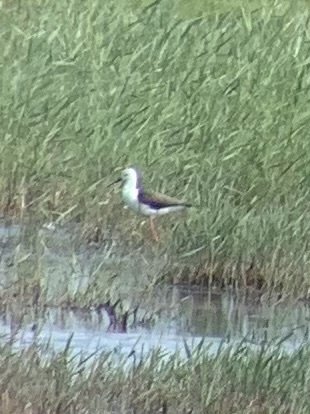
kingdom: Animalia
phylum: Chordata
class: Aves
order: Charadriiformes
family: Recurvirostridae
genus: Himantopus
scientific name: Himantopus himantopus
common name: Black-winged stilt
